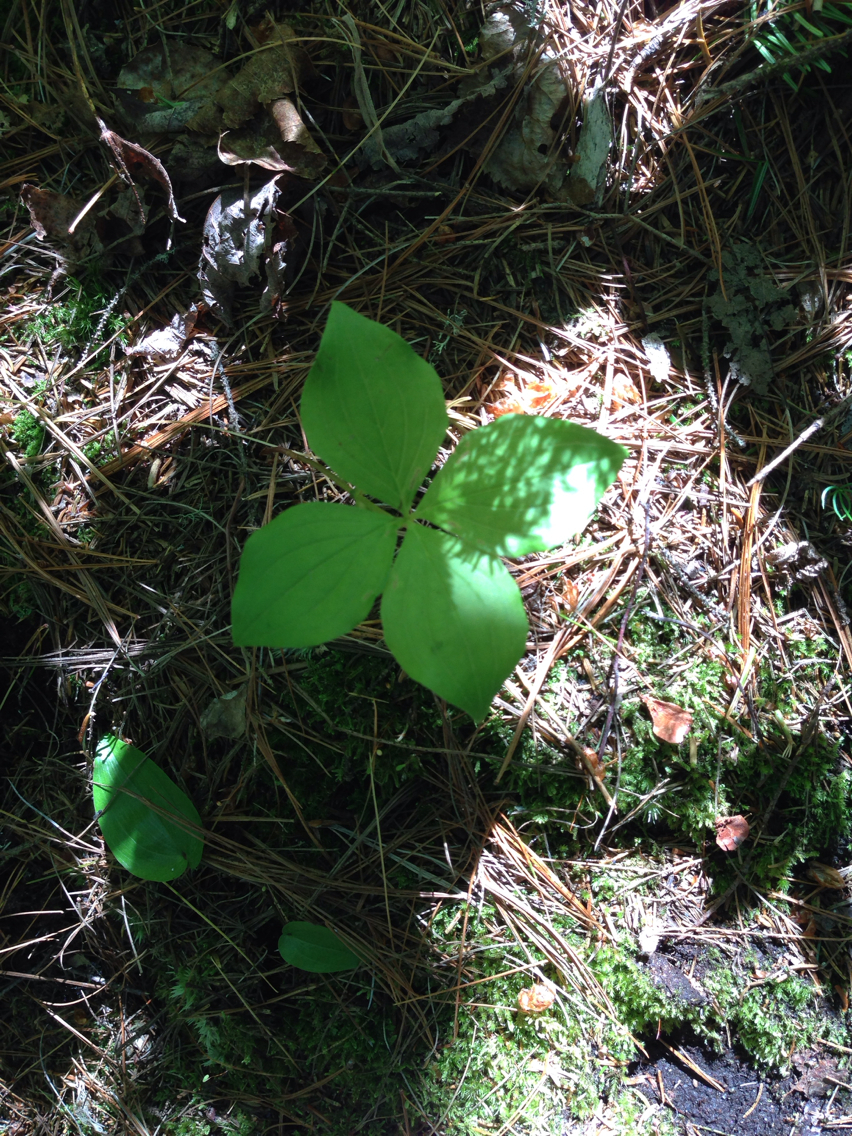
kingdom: Plantae
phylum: Tracheophyta
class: Magnoliopsida
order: Cornales
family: Cornaceae
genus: Cornus
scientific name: Cornus canadensis
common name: Creeping dogwood
